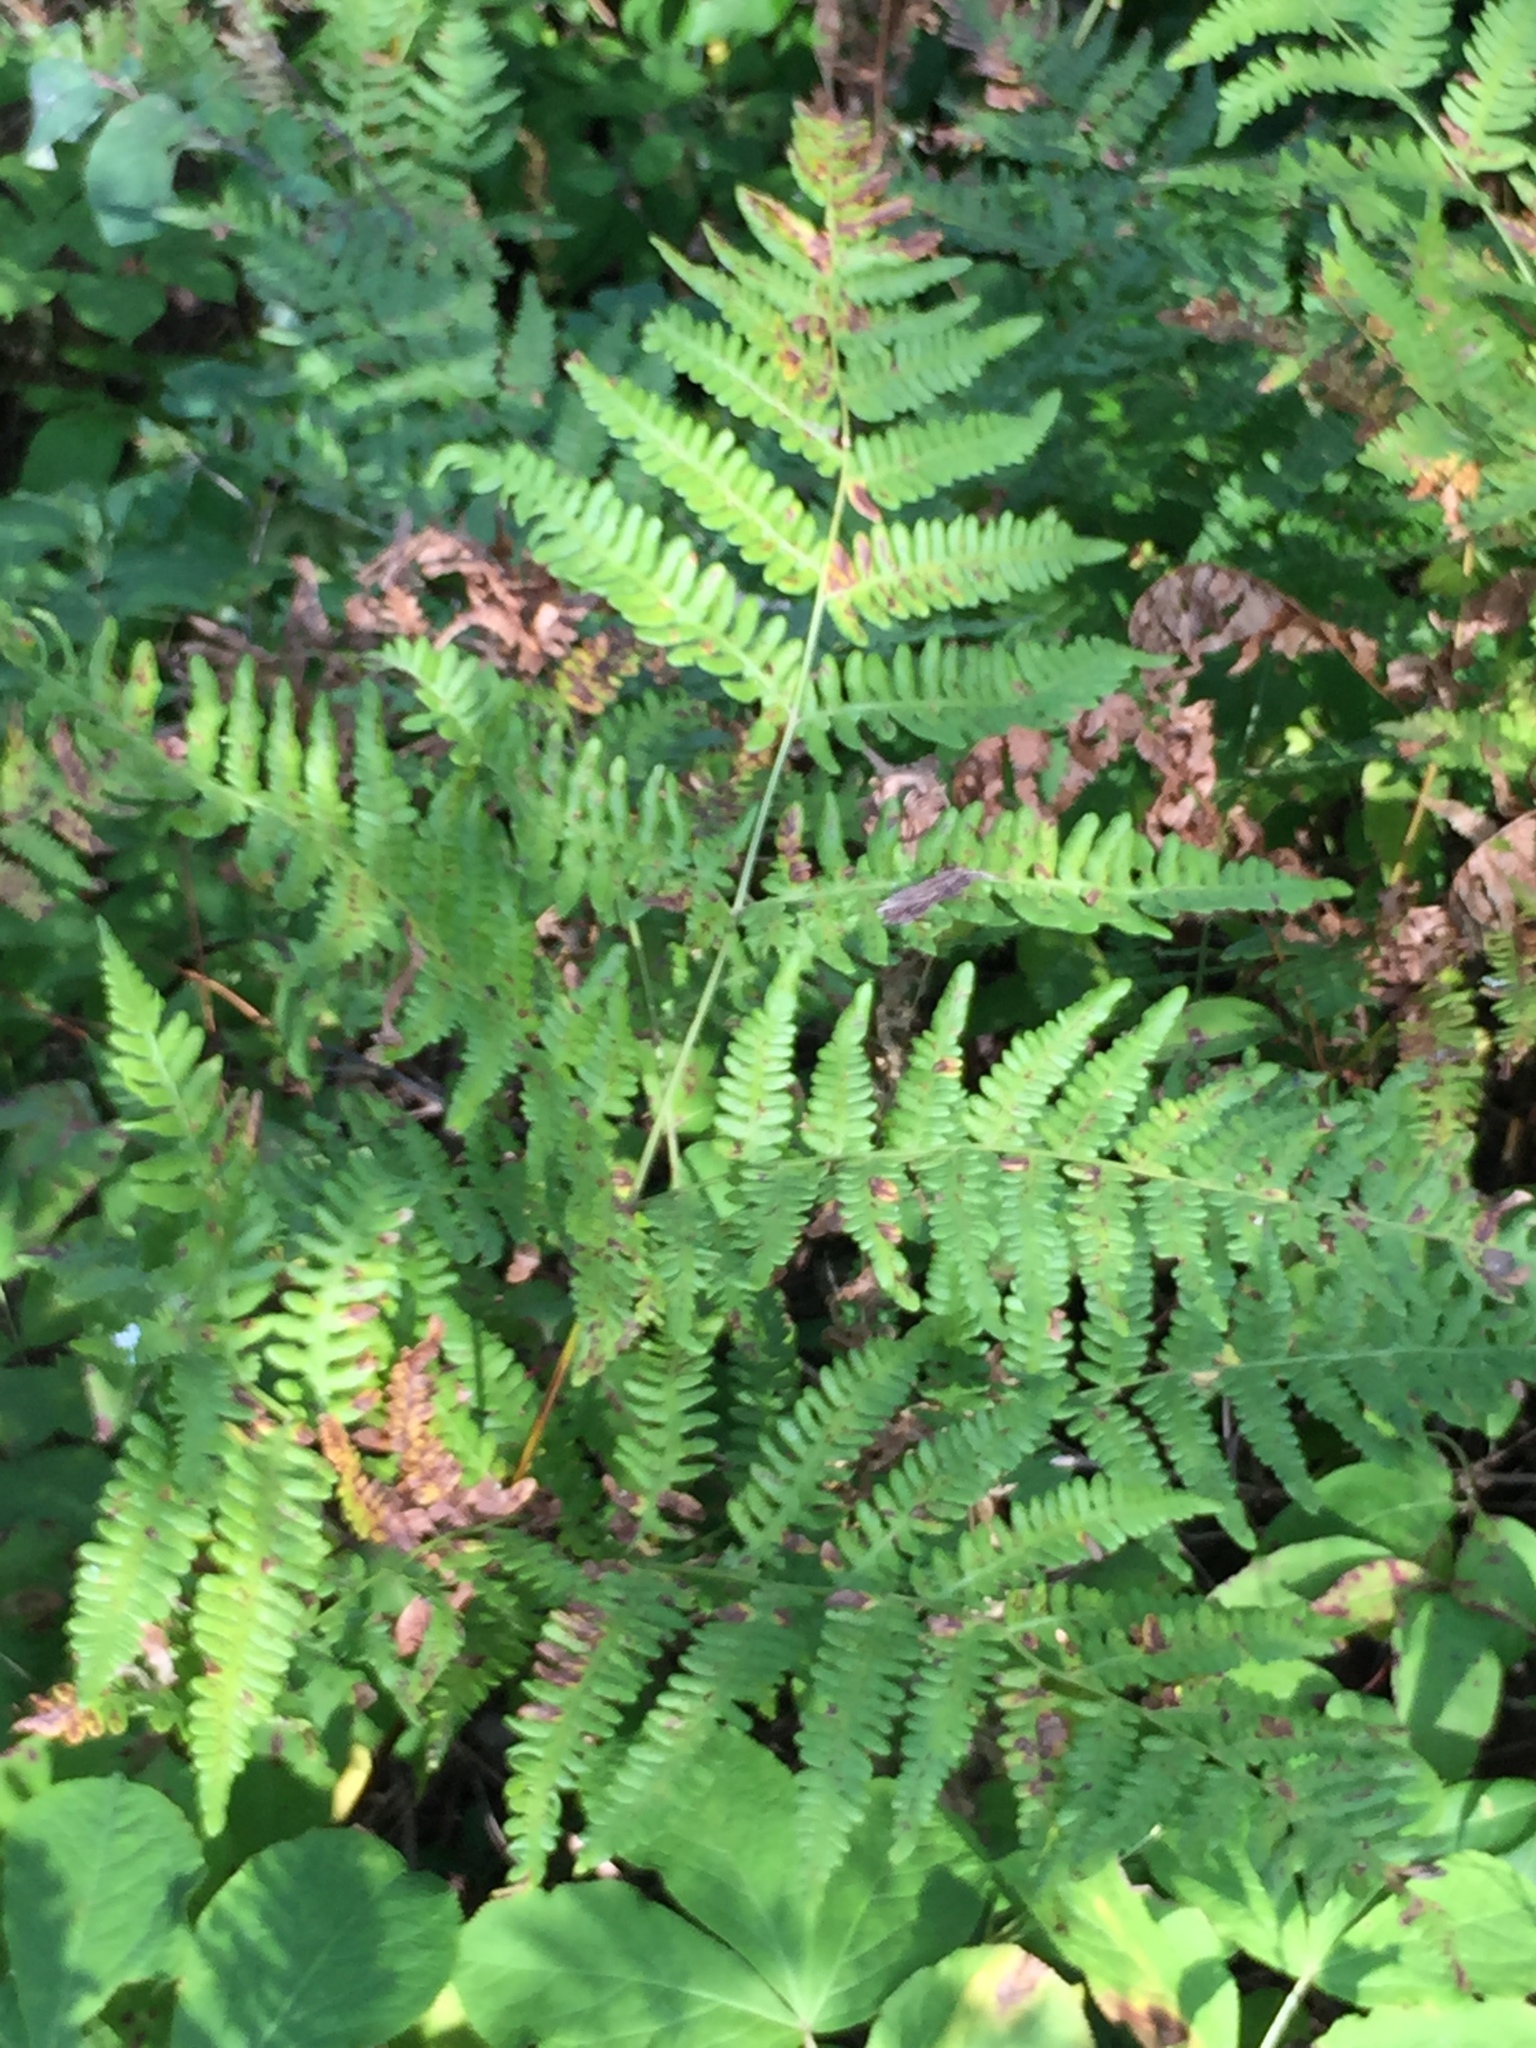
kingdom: Plantae
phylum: Tracheophyta
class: Polypodiopsida
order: Polypodiales
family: Dennstaedtiaceae
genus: Pteridium
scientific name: Pteridium aquilinum
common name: Bracken
